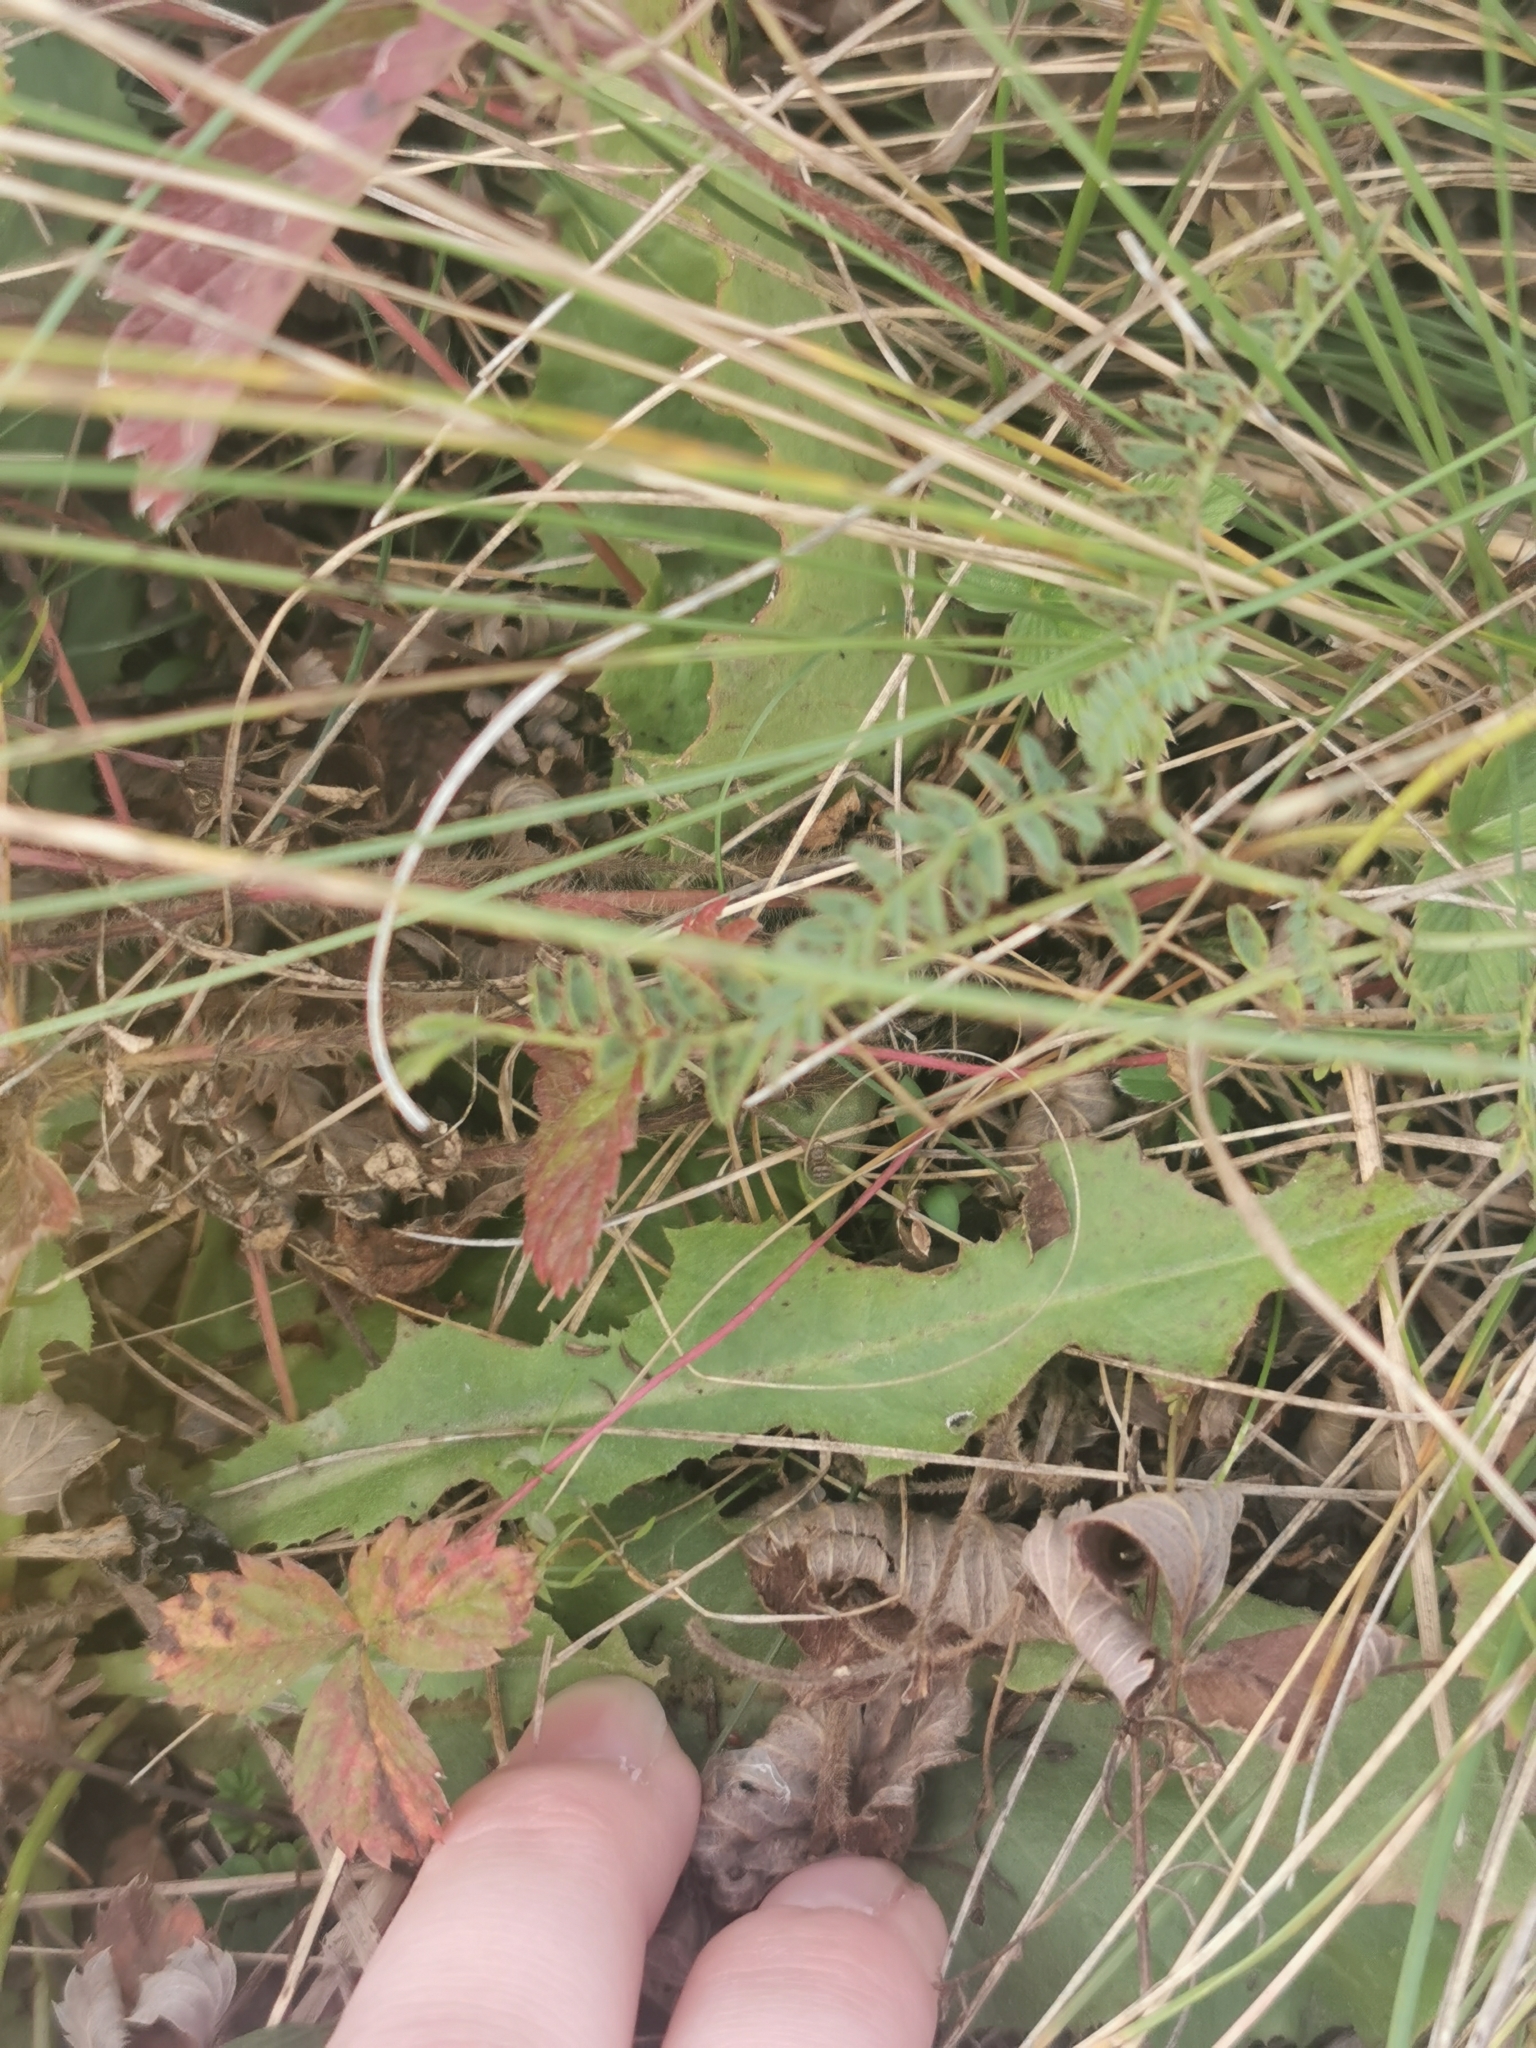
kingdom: Plantae
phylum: Tracheophyta
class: Magnoliopsida
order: Asterales
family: Asteraceae
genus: Taraxacum
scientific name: Taraxacum serotinum
